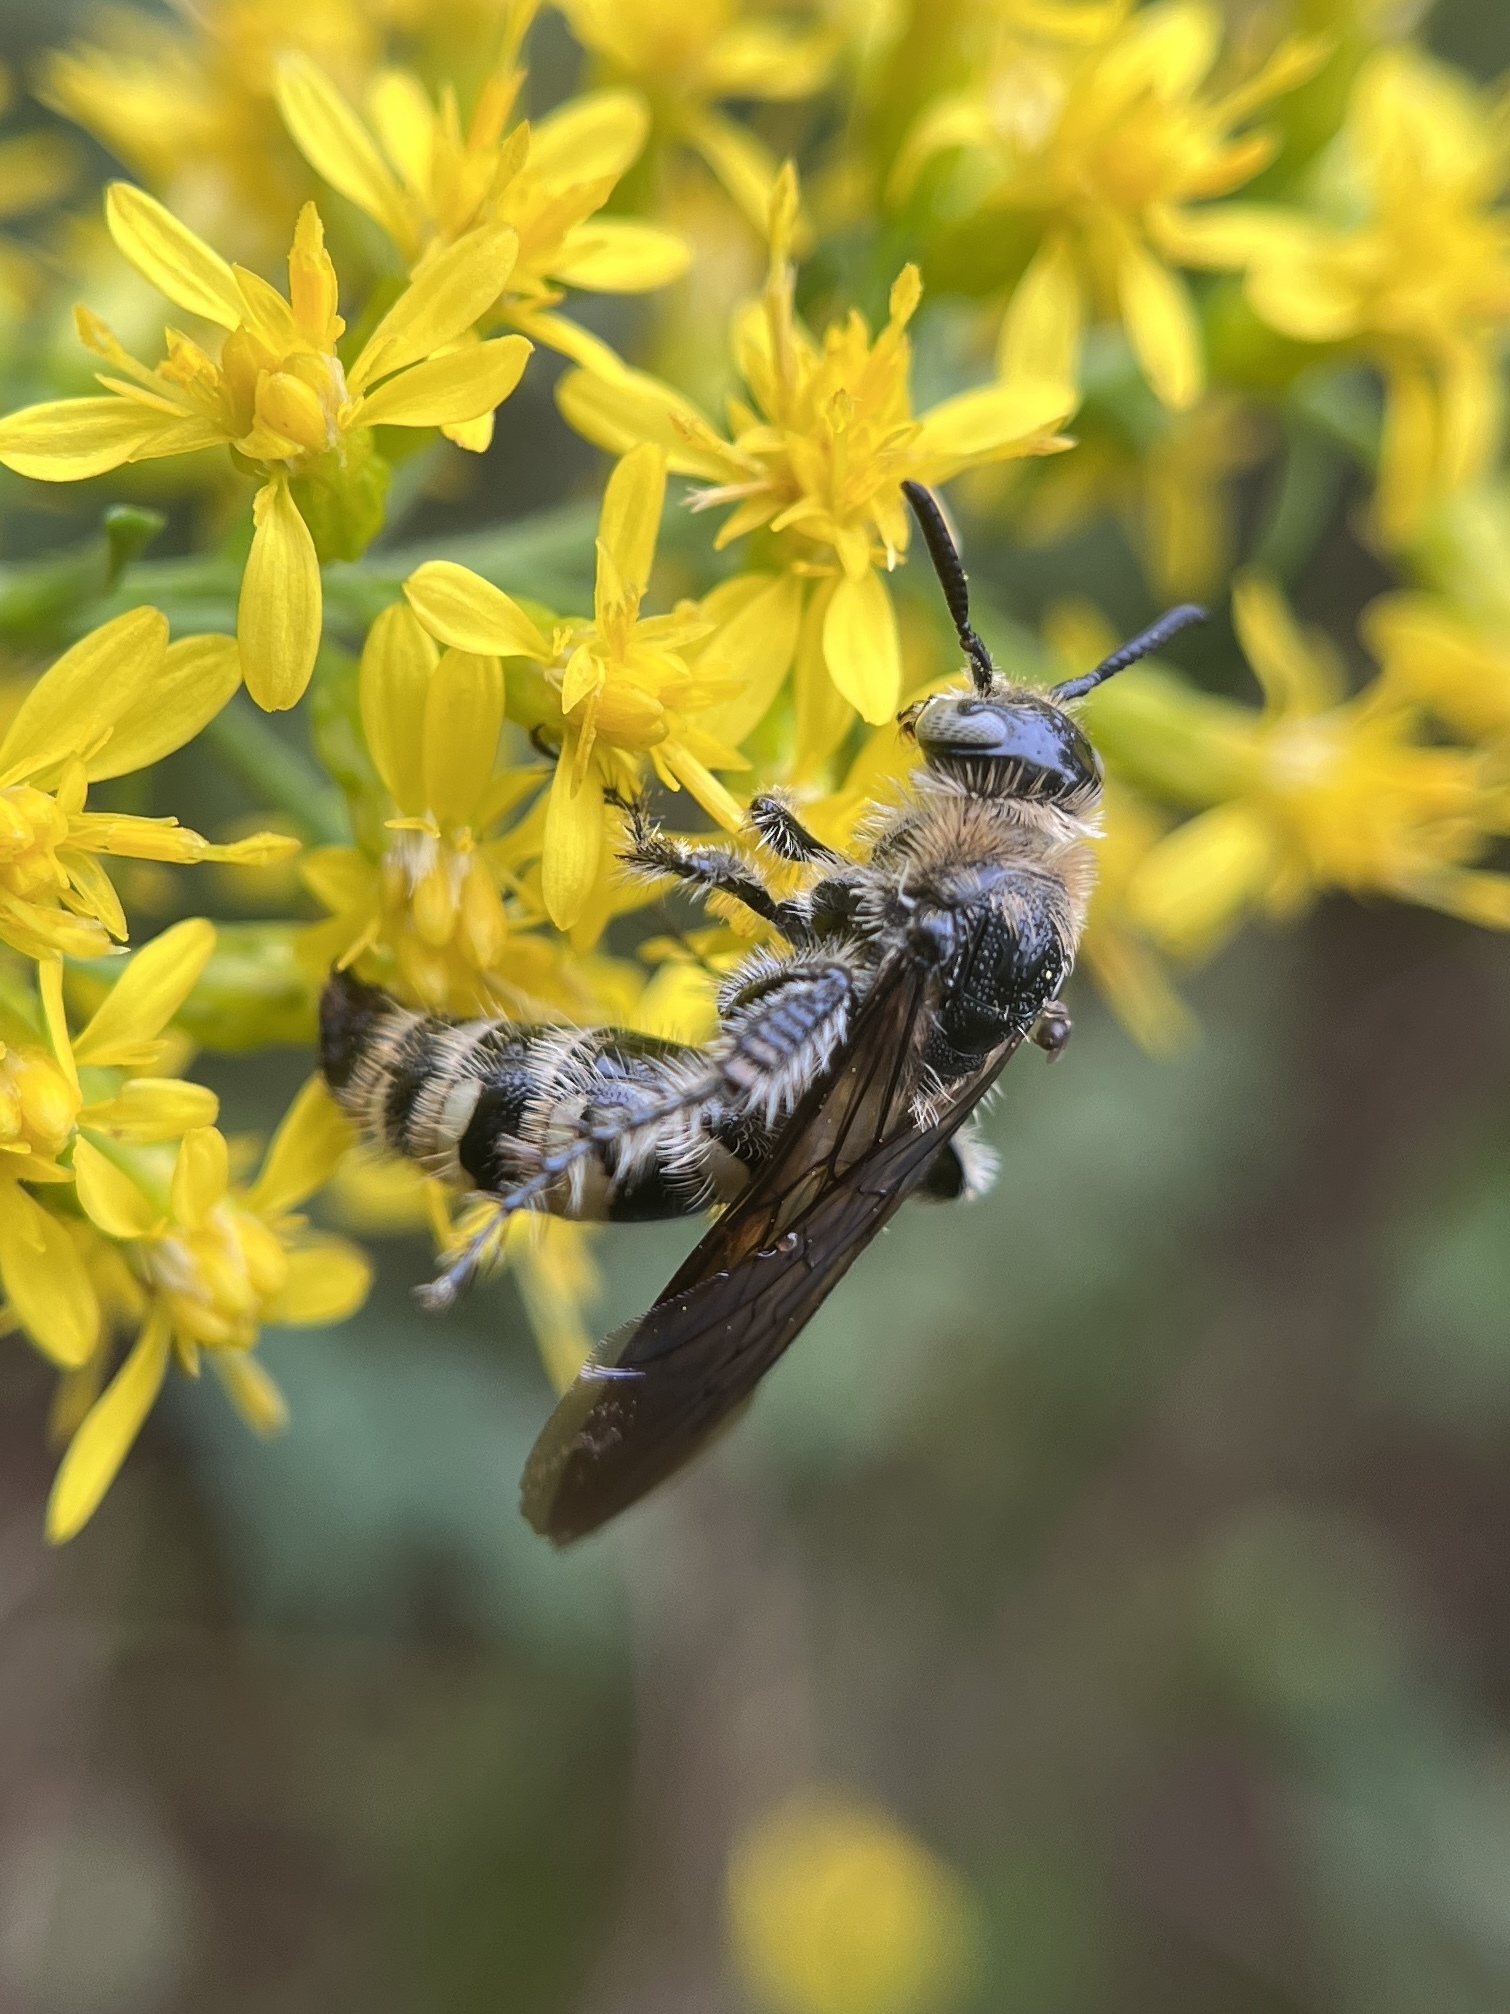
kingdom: Animalia
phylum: Arthropoda
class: Insecta
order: Hymenoptera
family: Scoliidae
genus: Dielis
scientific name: Dielis
